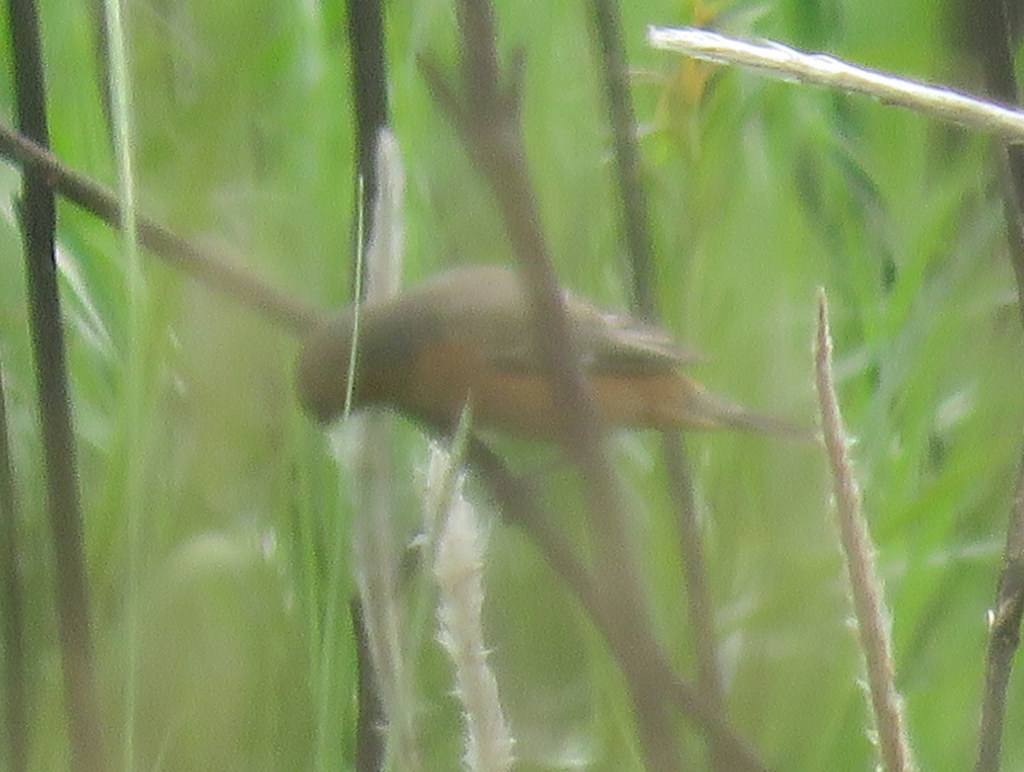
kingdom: Animalia
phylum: Chordata
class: Aves
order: Passeriformes
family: Thraupidae
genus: Sporophila
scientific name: Sporophila hypoxantha
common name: Tawny-bellied seedeater
